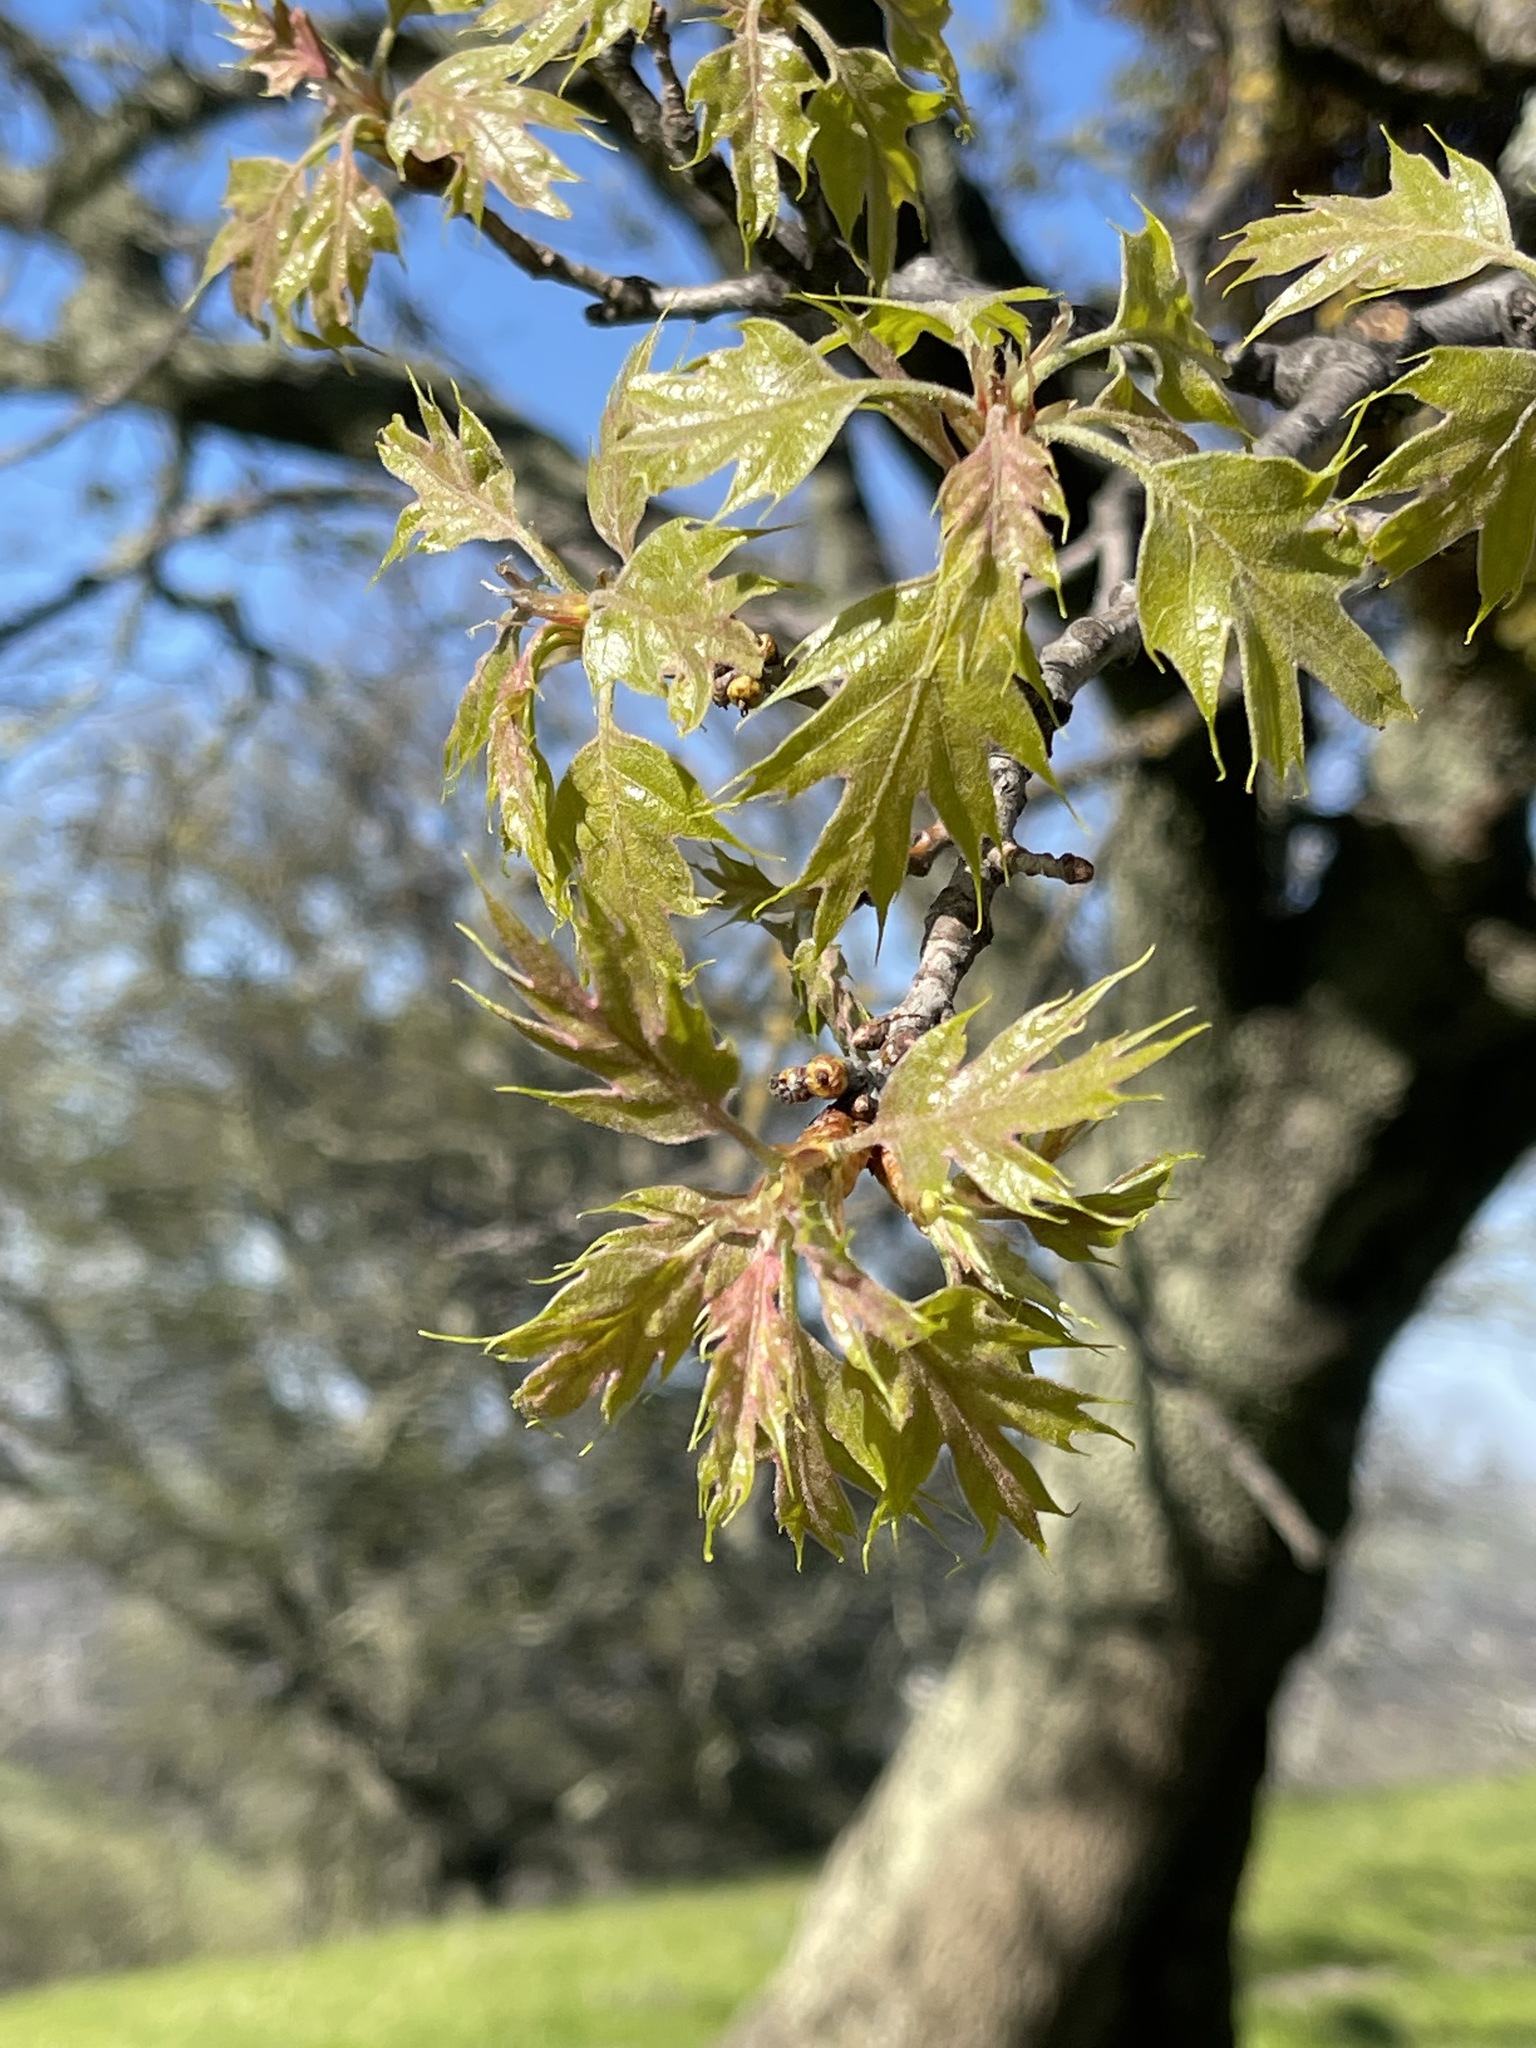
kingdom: Plantae
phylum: Tracheophyta
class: Magnoliopsida
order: Fagales
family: Fagaceae
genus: Quercus
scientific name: Quercus kelloggii
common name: California black oak
